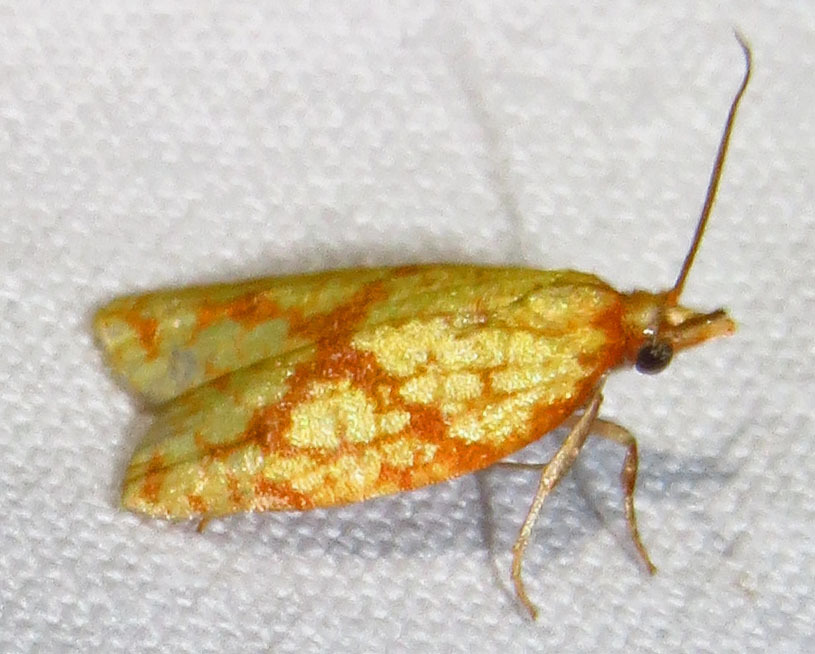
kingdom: Animalia
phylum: Arthropoda
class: Insecta
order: Lepidoptera
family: Tortricidae
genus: Sparganothis
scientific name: Sparganothis sulfureana
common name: Sparganothis fruitworm moth
